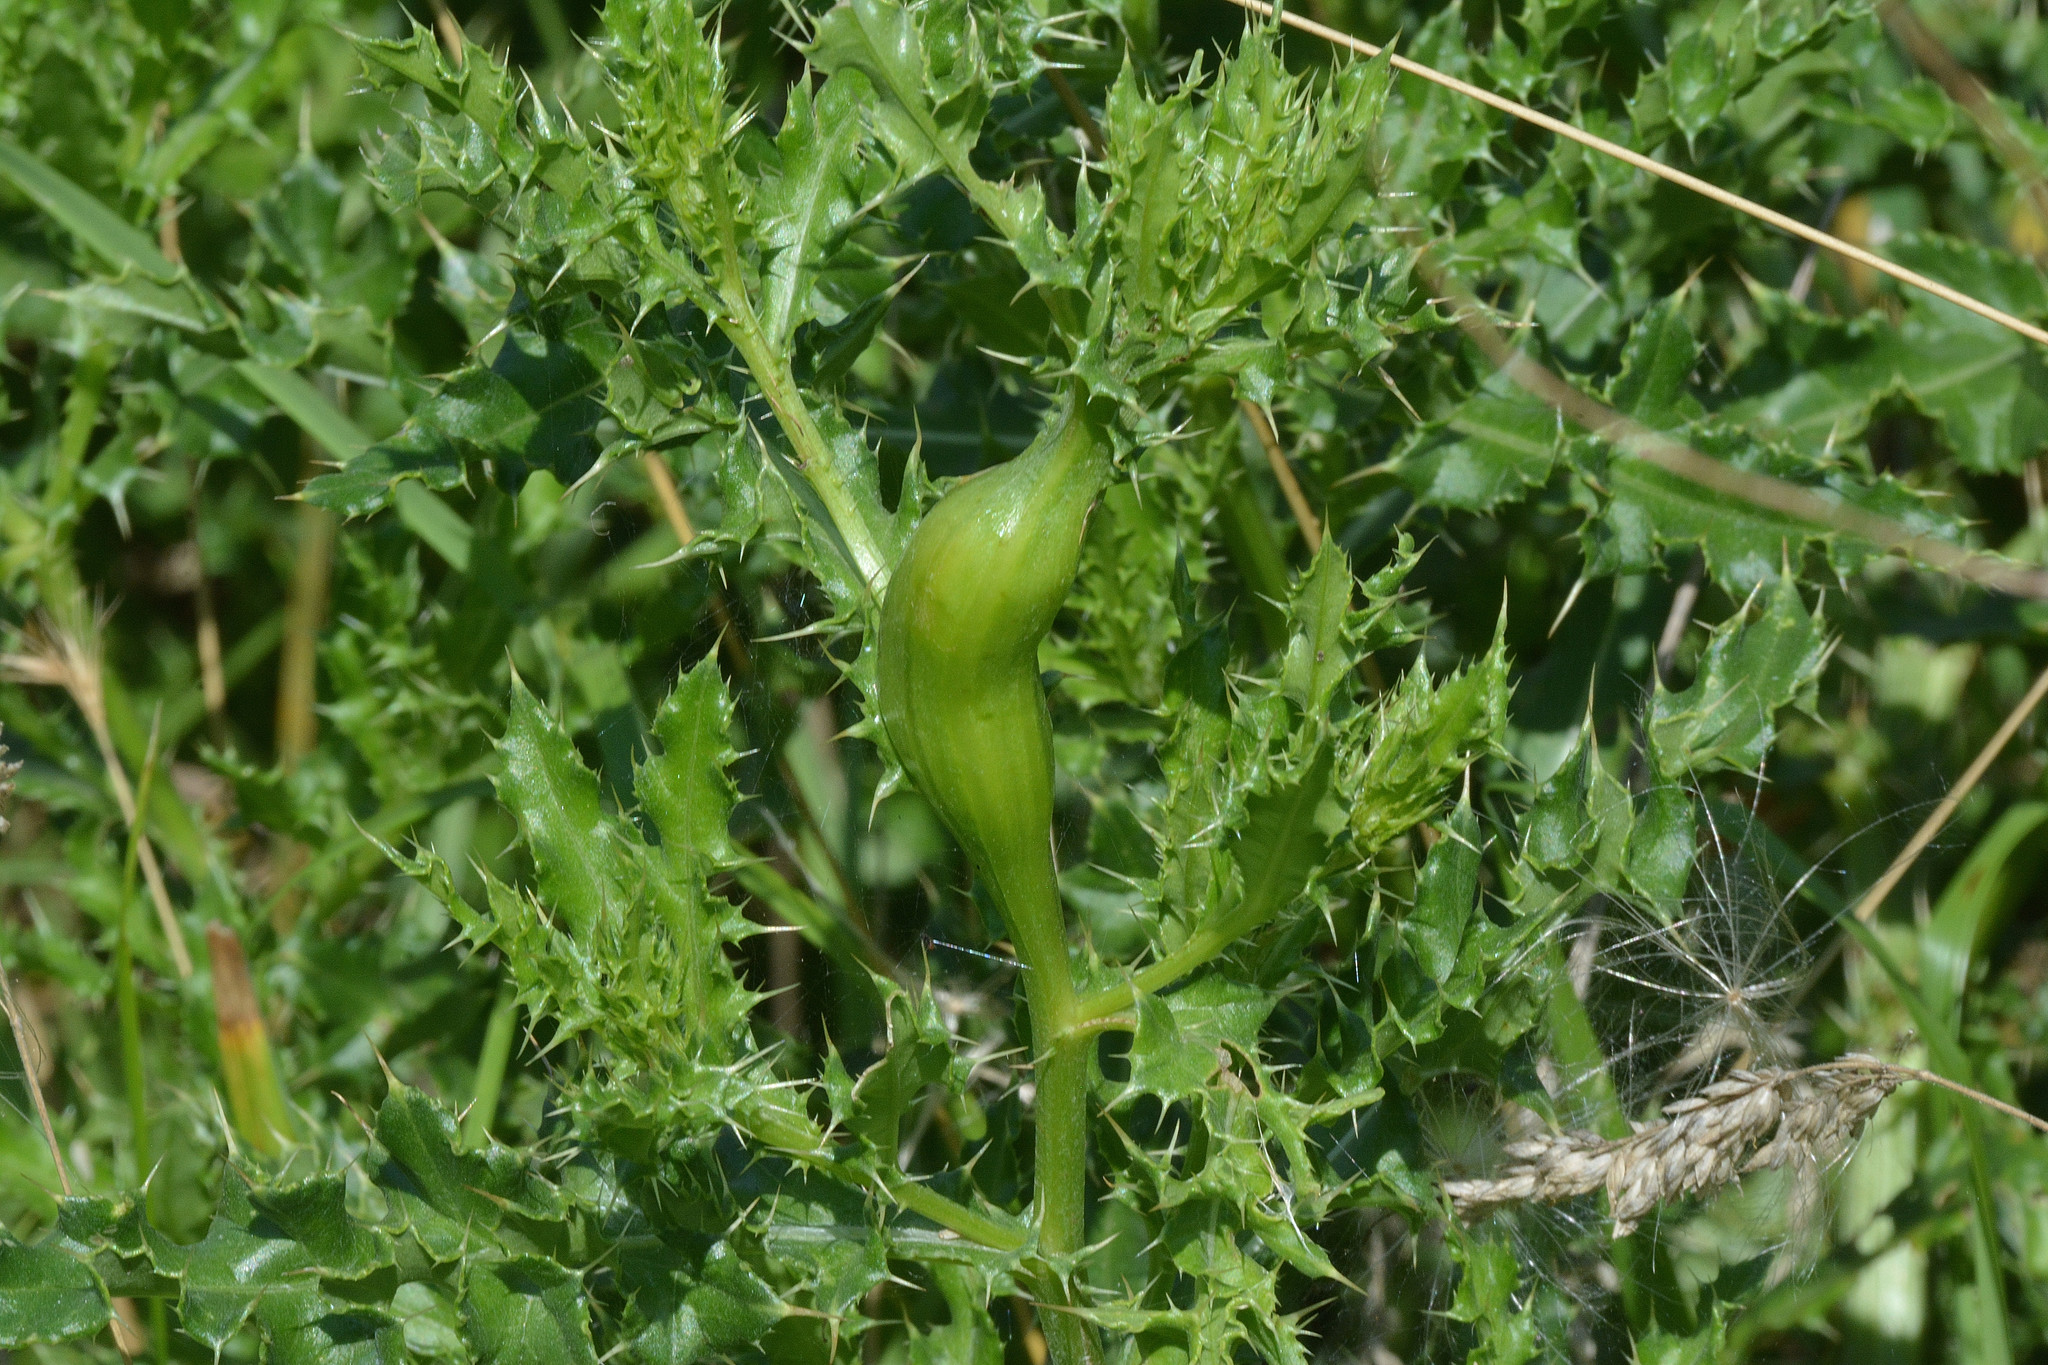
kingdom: Animalia
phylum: Arthropoda
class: Insecta
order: Diptera
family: Tephritidae
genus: Urophora
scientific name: Urophora cardui
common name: Fruit fly
